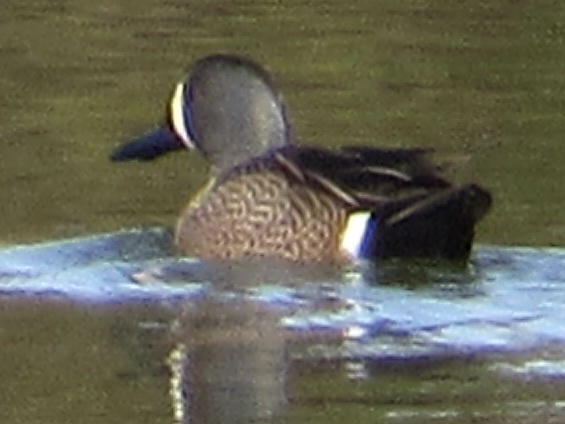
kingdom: Animalia
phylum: Chordata
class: Aves
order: Anseriformes
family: Anatidae
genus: Spatula
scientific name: Spatula discors
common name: Blue-winged teal
